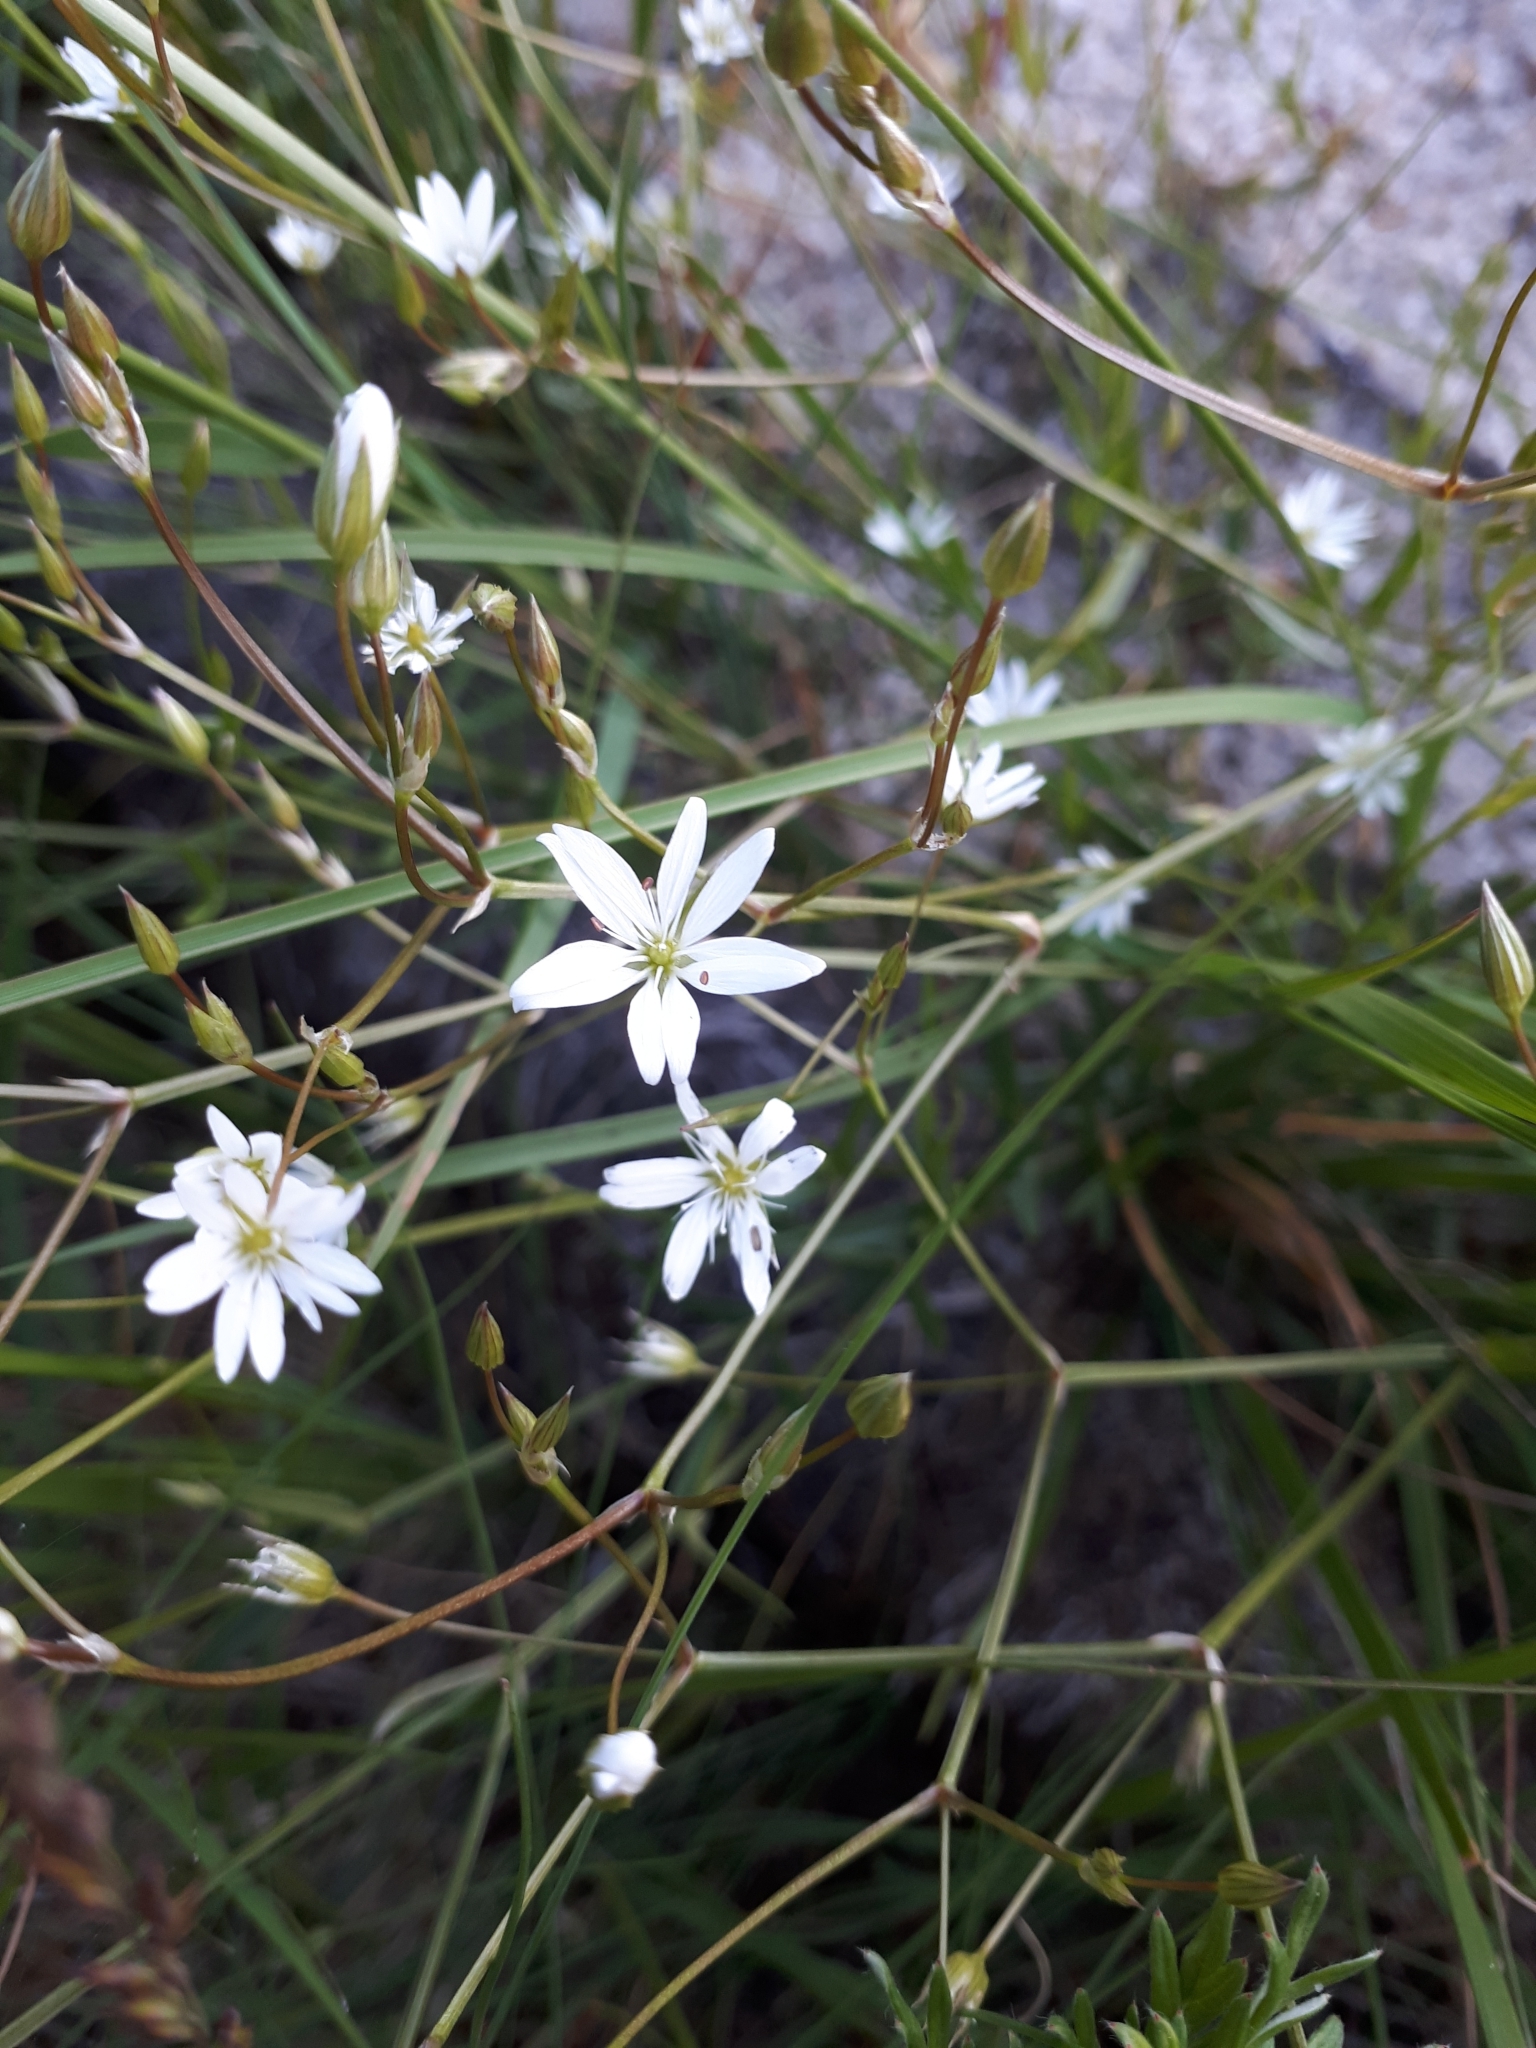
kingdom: Plantae
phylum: Tracheophyta
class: Magnoliopsida
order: Caryophyllales
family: Caryophyllaceae
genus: Stellaria
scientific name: Stellaria graminea
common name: Grass-like starwort
